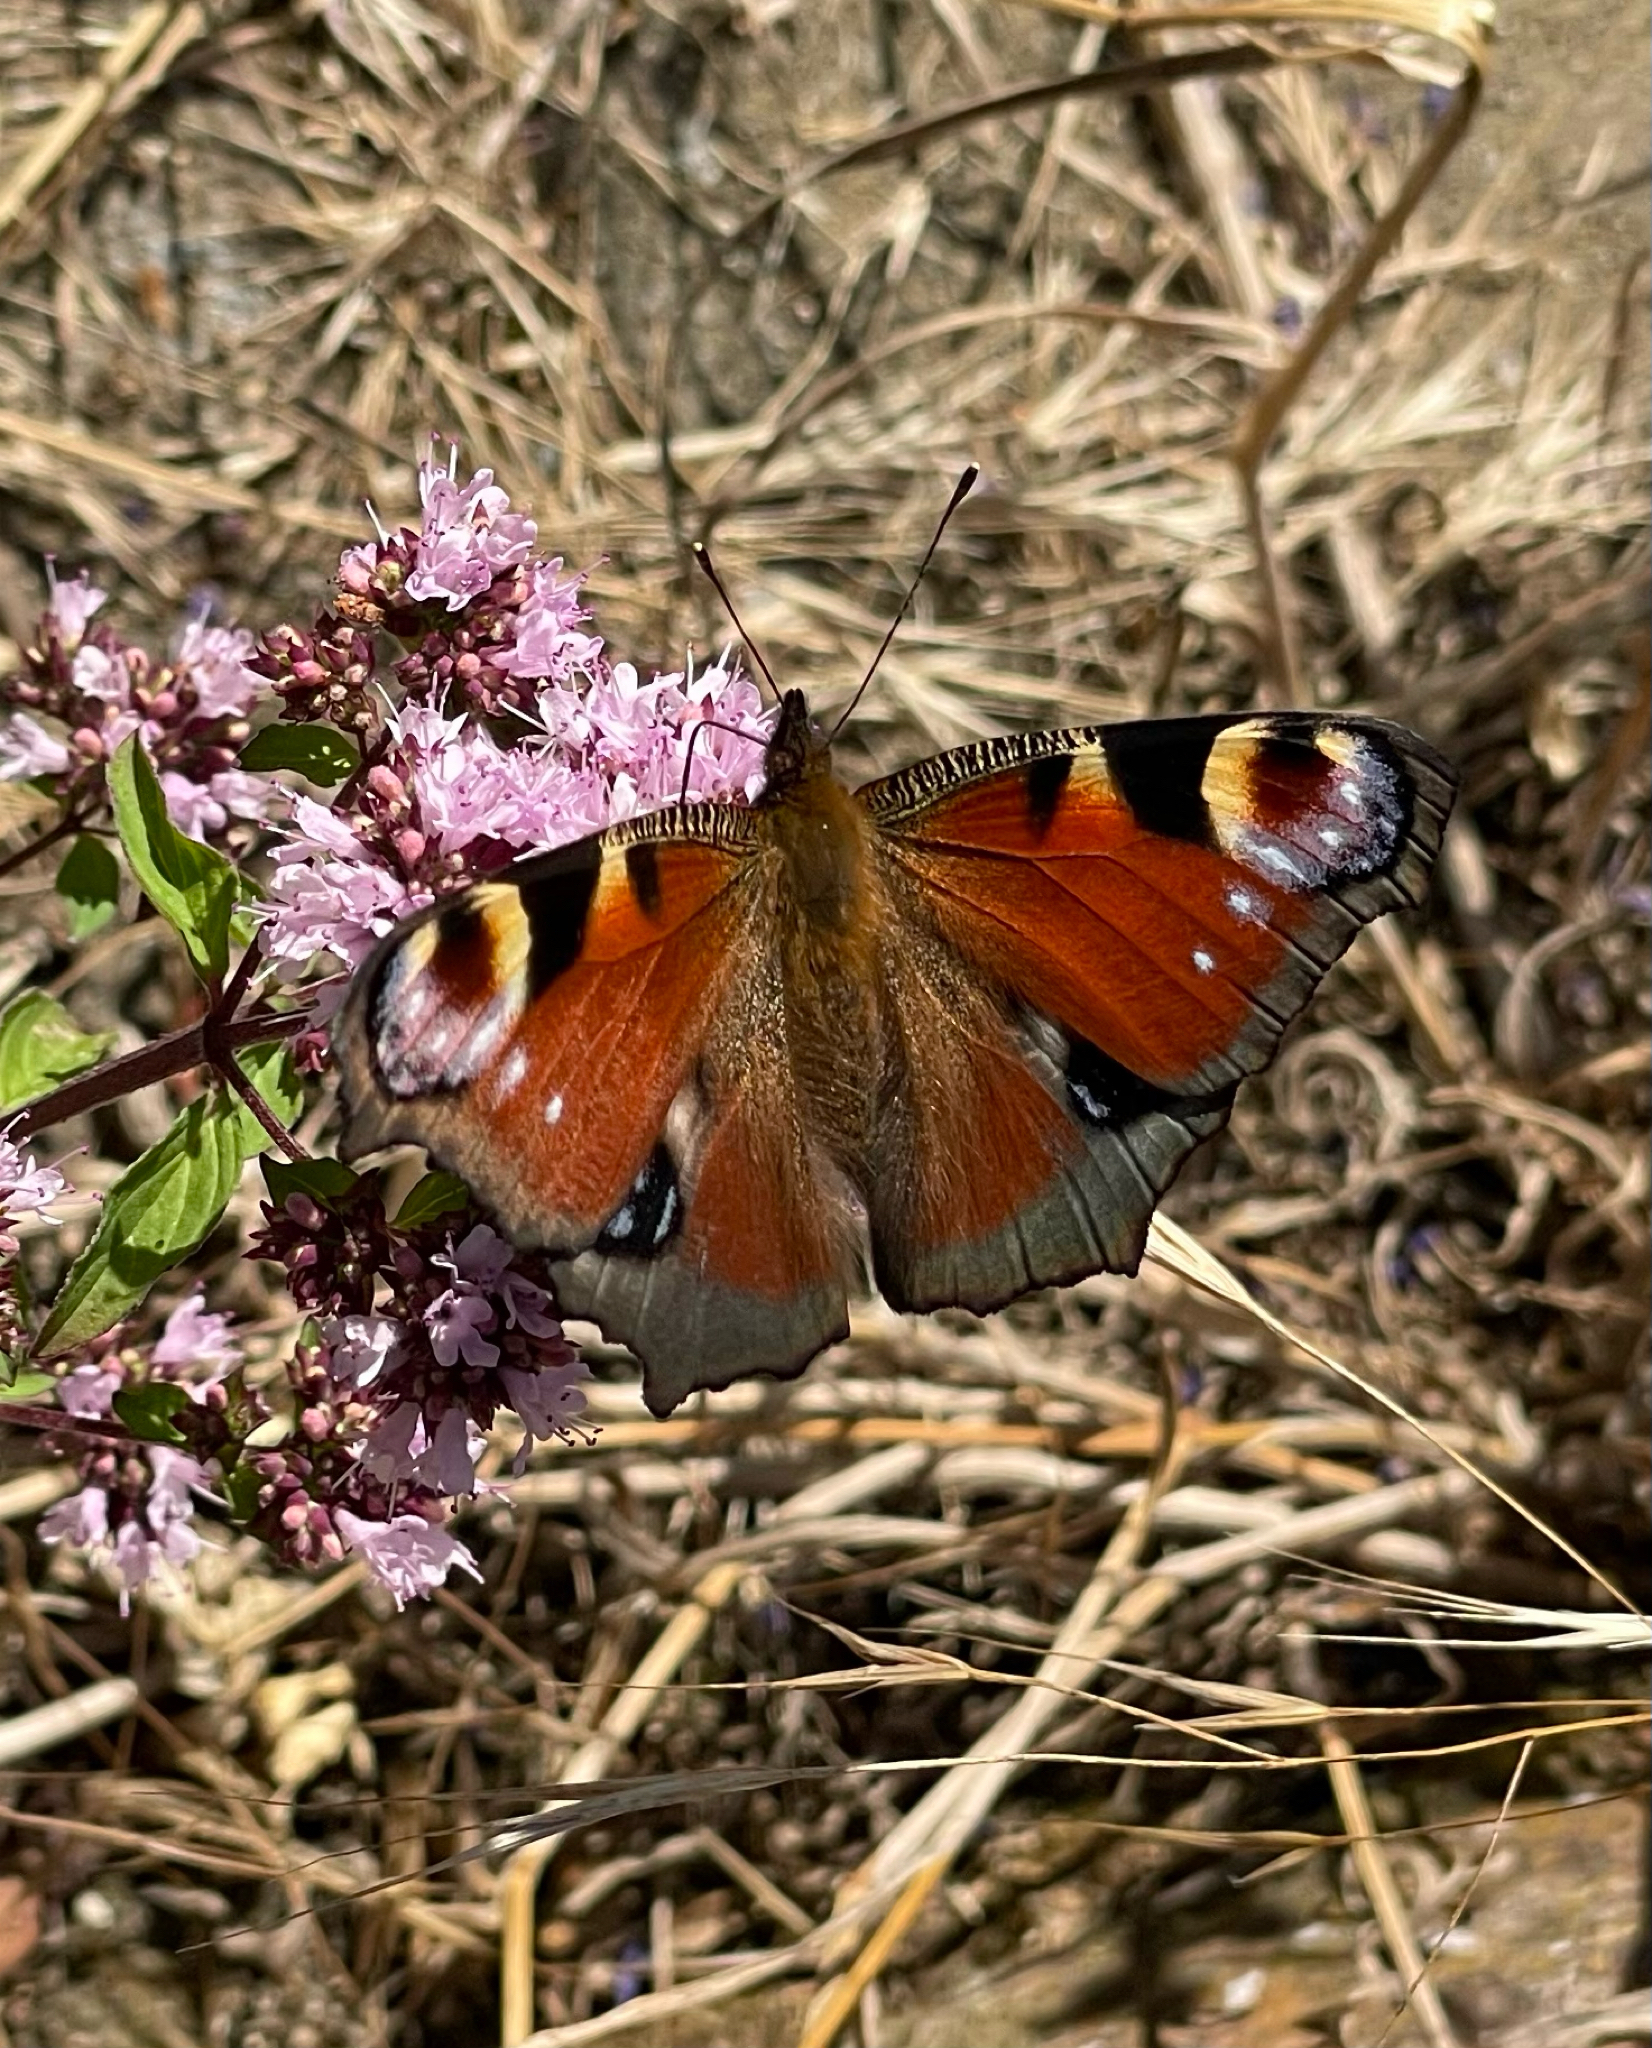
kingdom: Animalia
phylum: Arthropoda
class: Insecta
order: Lepidoptera
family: Nymphalidae
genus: Aglais
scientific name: Aglais io
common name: Peacock
